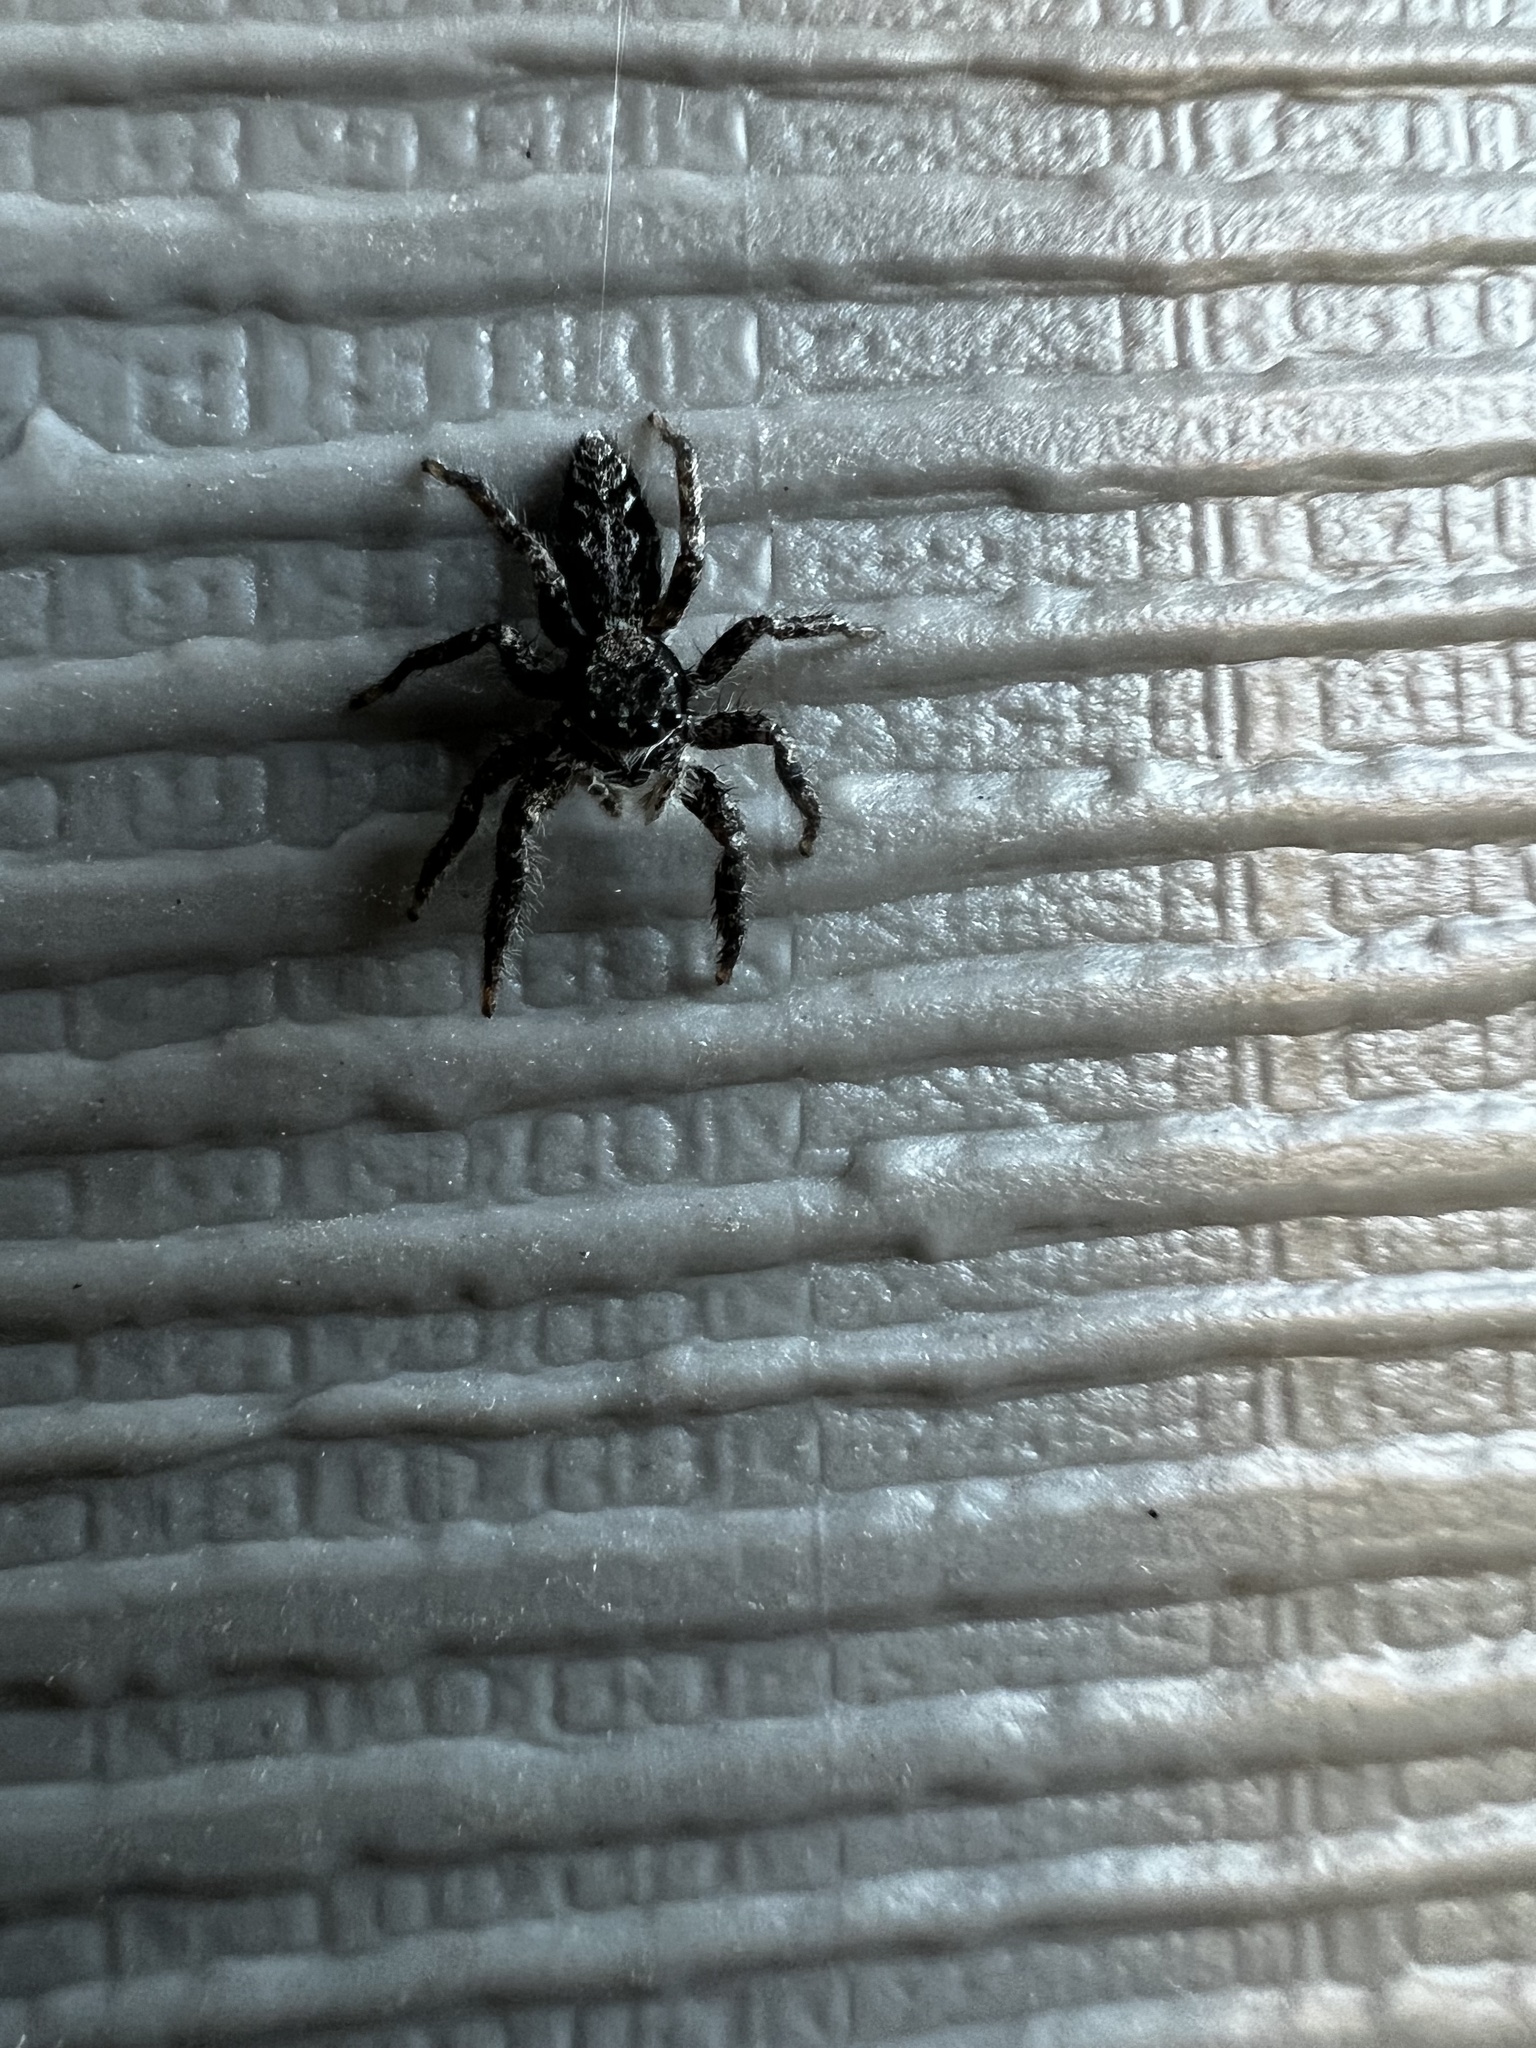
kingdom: Animalia
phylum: Arthropoda
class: Arachnida
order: Araneae
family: Salticidae
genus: Platycryptus
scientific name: Platycryptus californicus
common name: Jumping spiders
